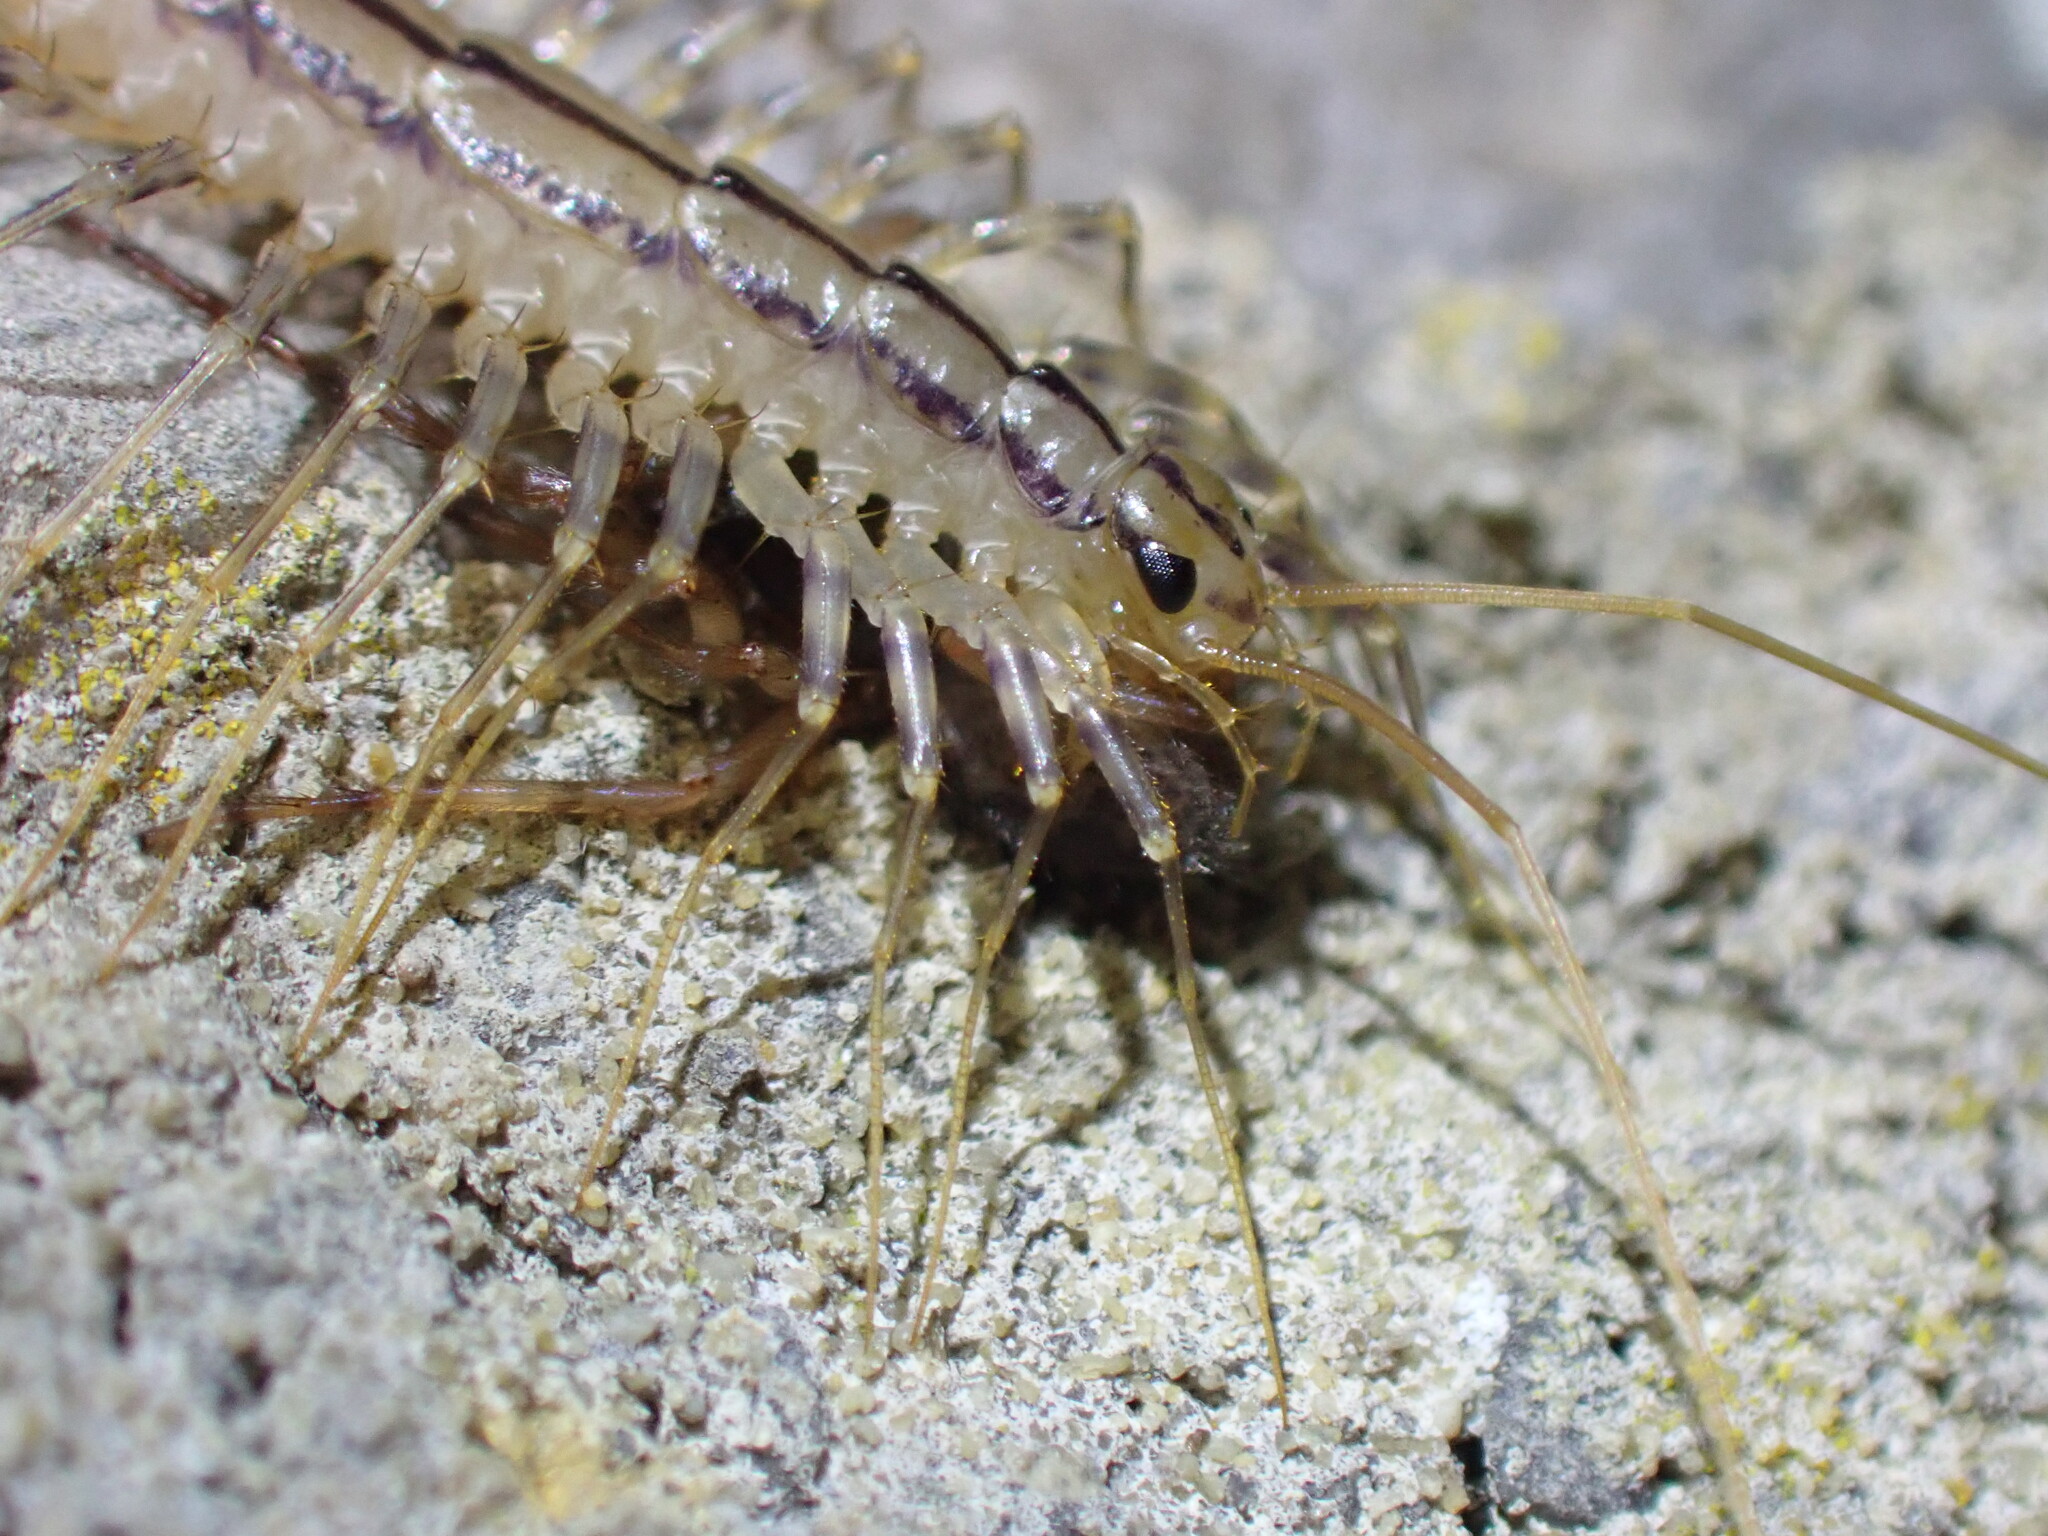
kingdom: Animalia
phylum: Arthropoda
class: Chilopoda
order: Scutigeromorpha
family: Scutigeridae
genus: Scutigera
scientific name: Scutigera coleoptrata
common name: House centipede
